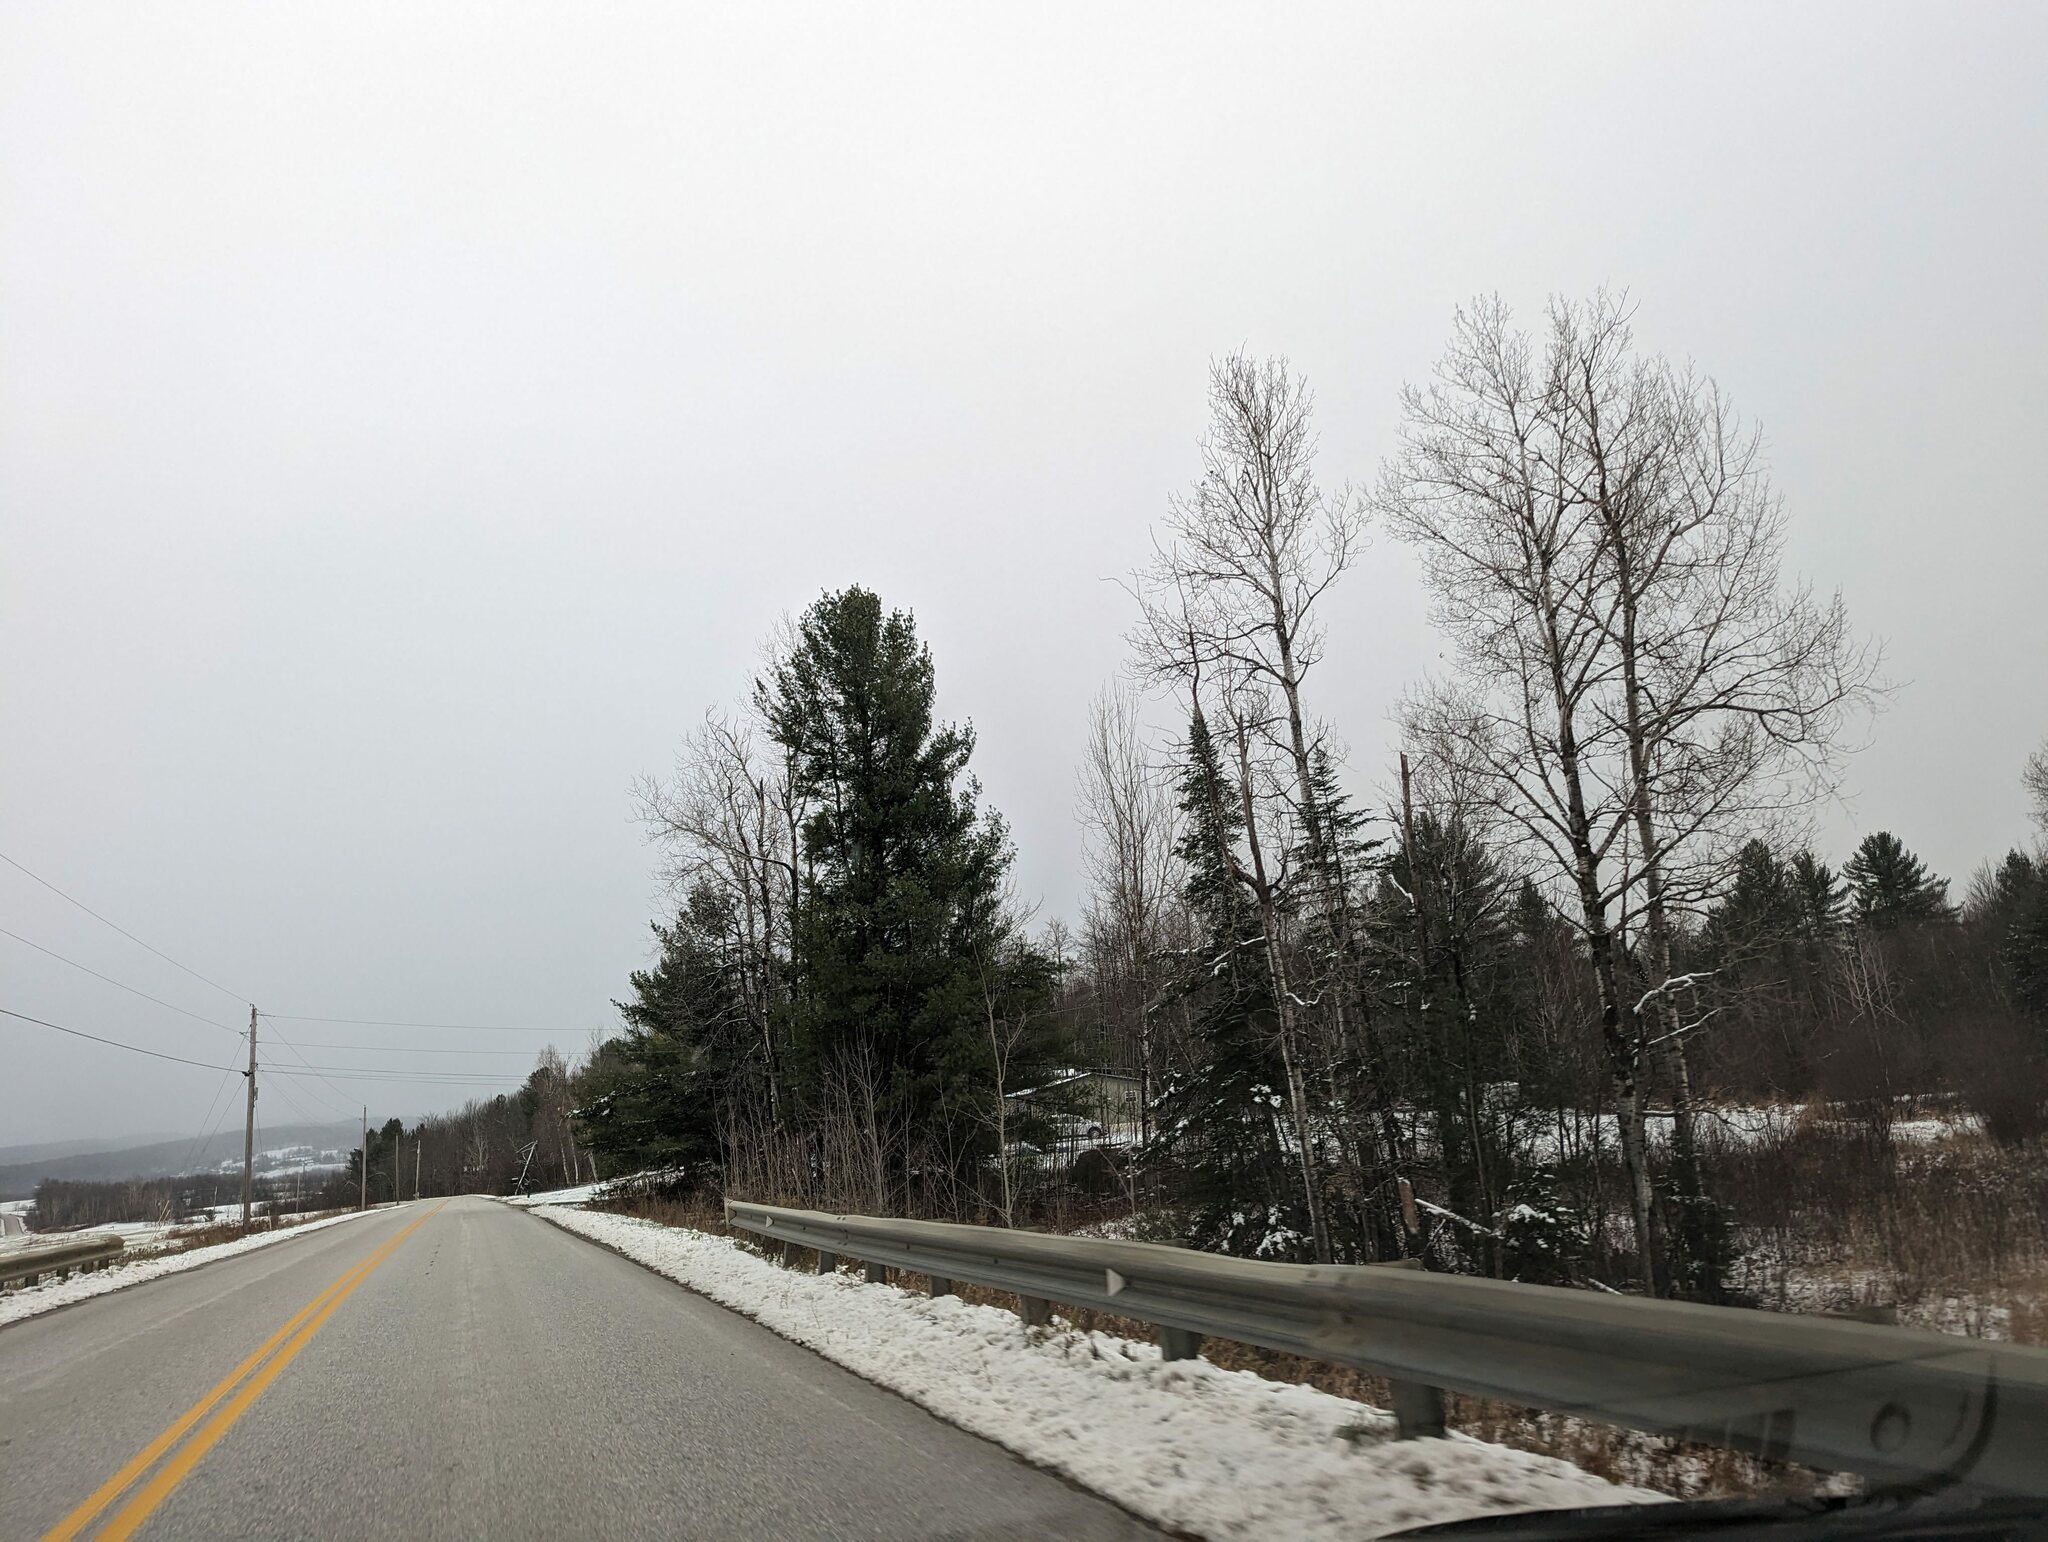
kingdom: Plantae
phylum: Tracheophyta
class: Pinopsida
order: Pinales
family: Pinaceae
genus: Pinus
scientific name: Pinus strobus
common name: Weymouth pine
